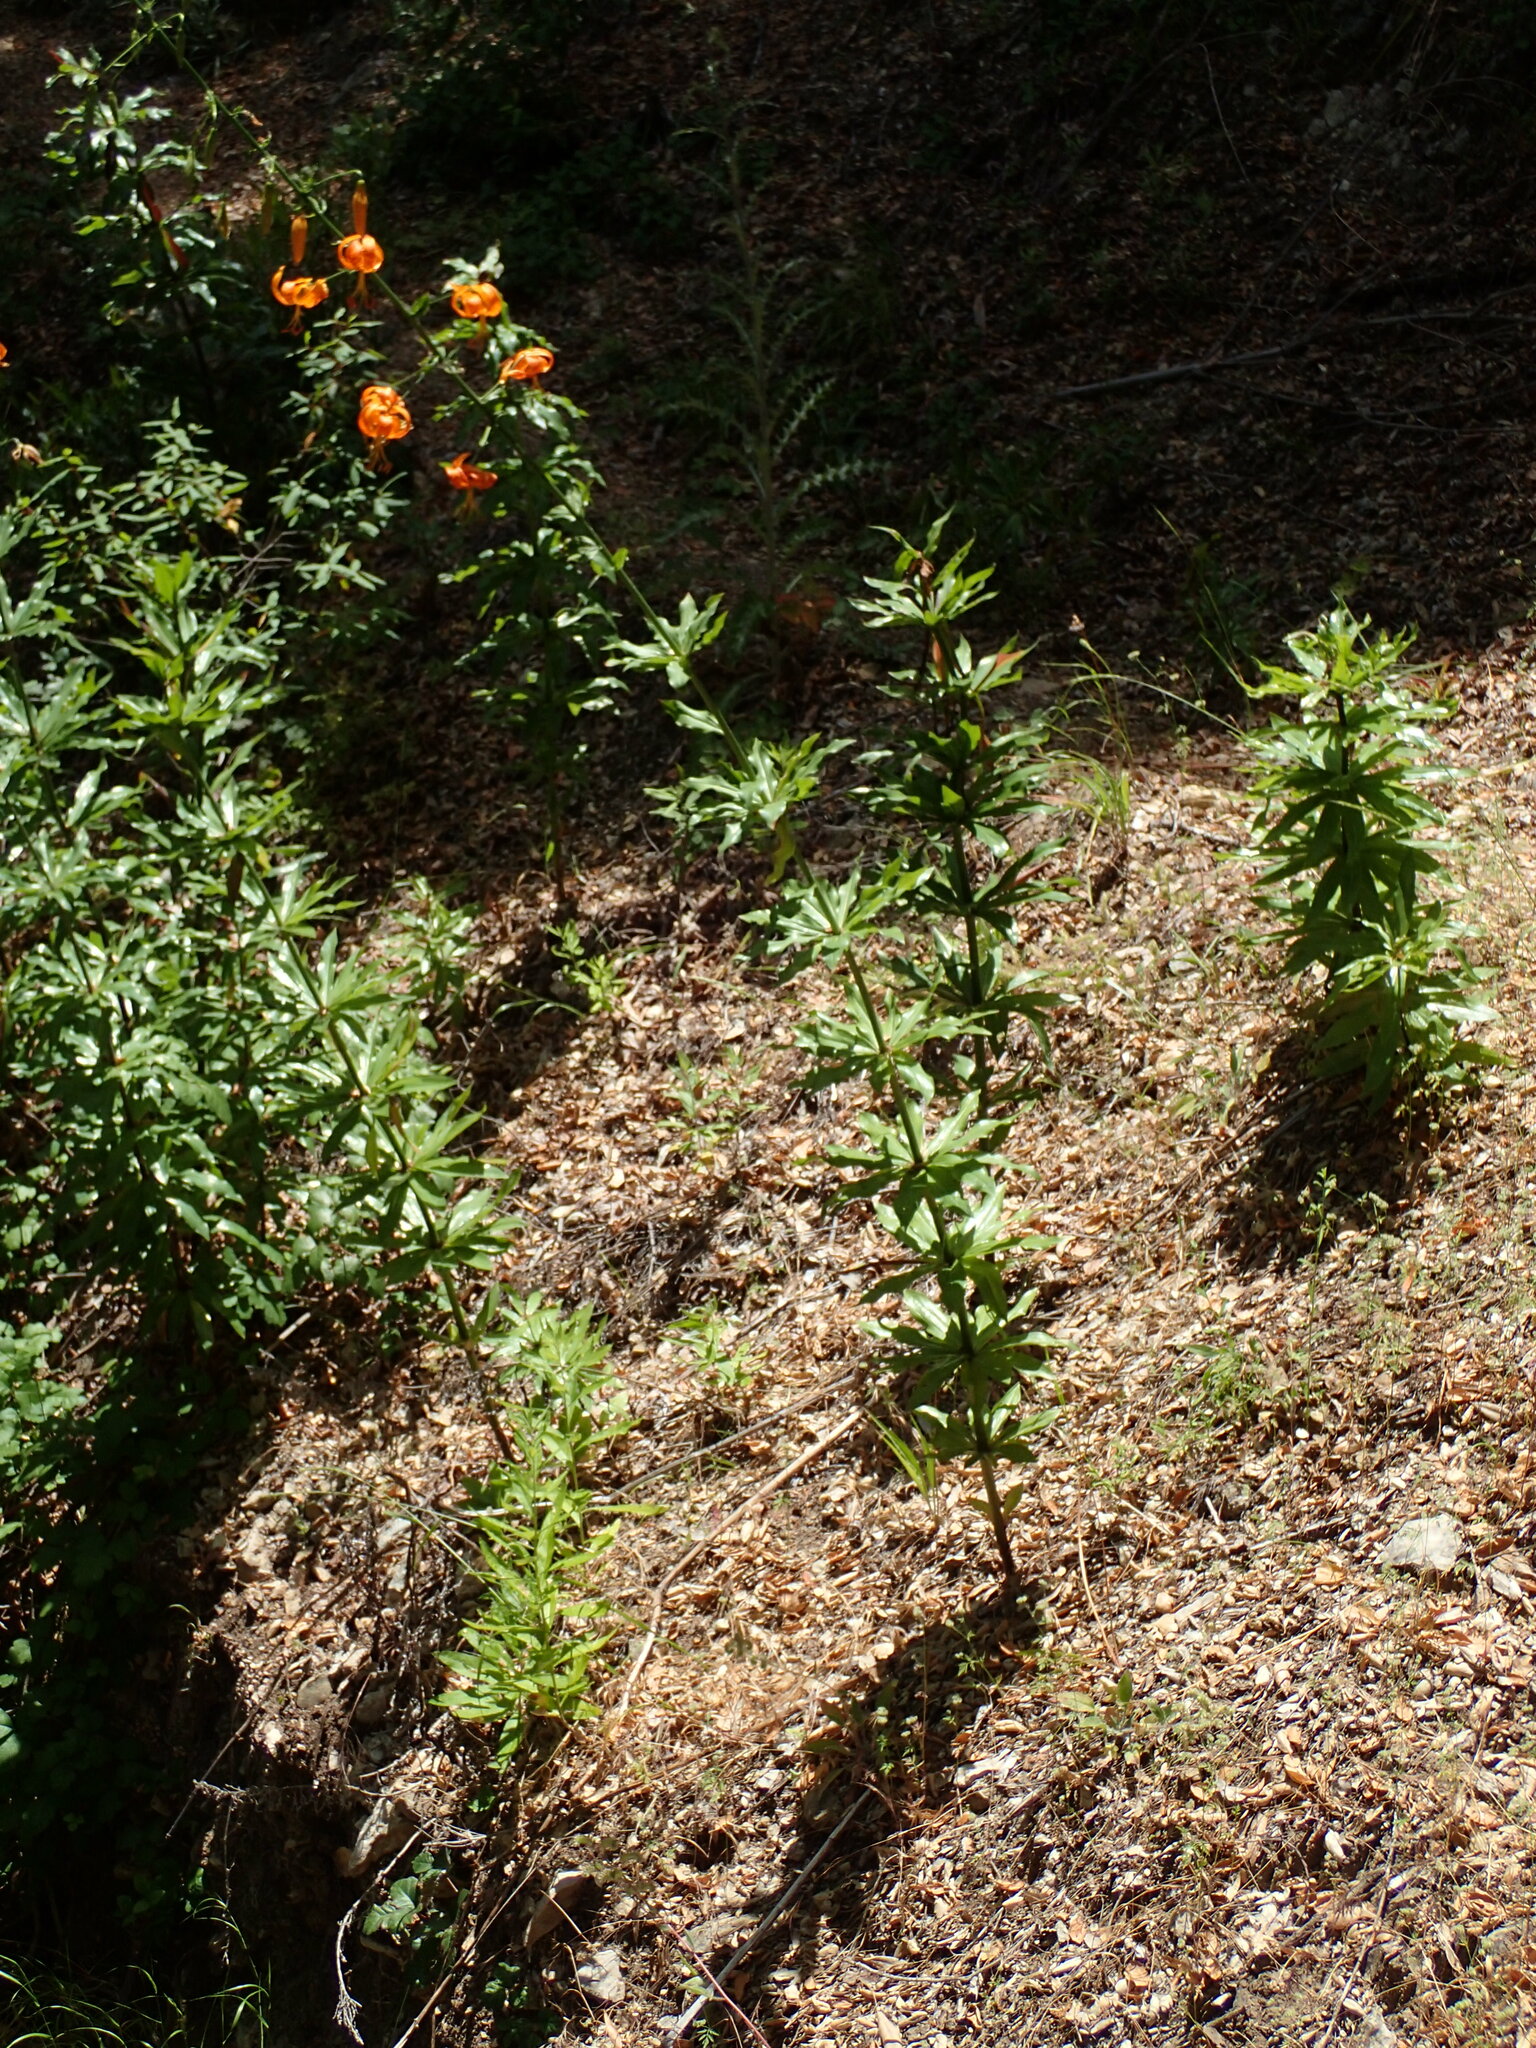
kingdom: Plantae
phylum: Tracheophyta
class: Liliopsida
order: Liliales
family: Liliaceae
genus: Lilium
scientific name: Lilium humboldtii
